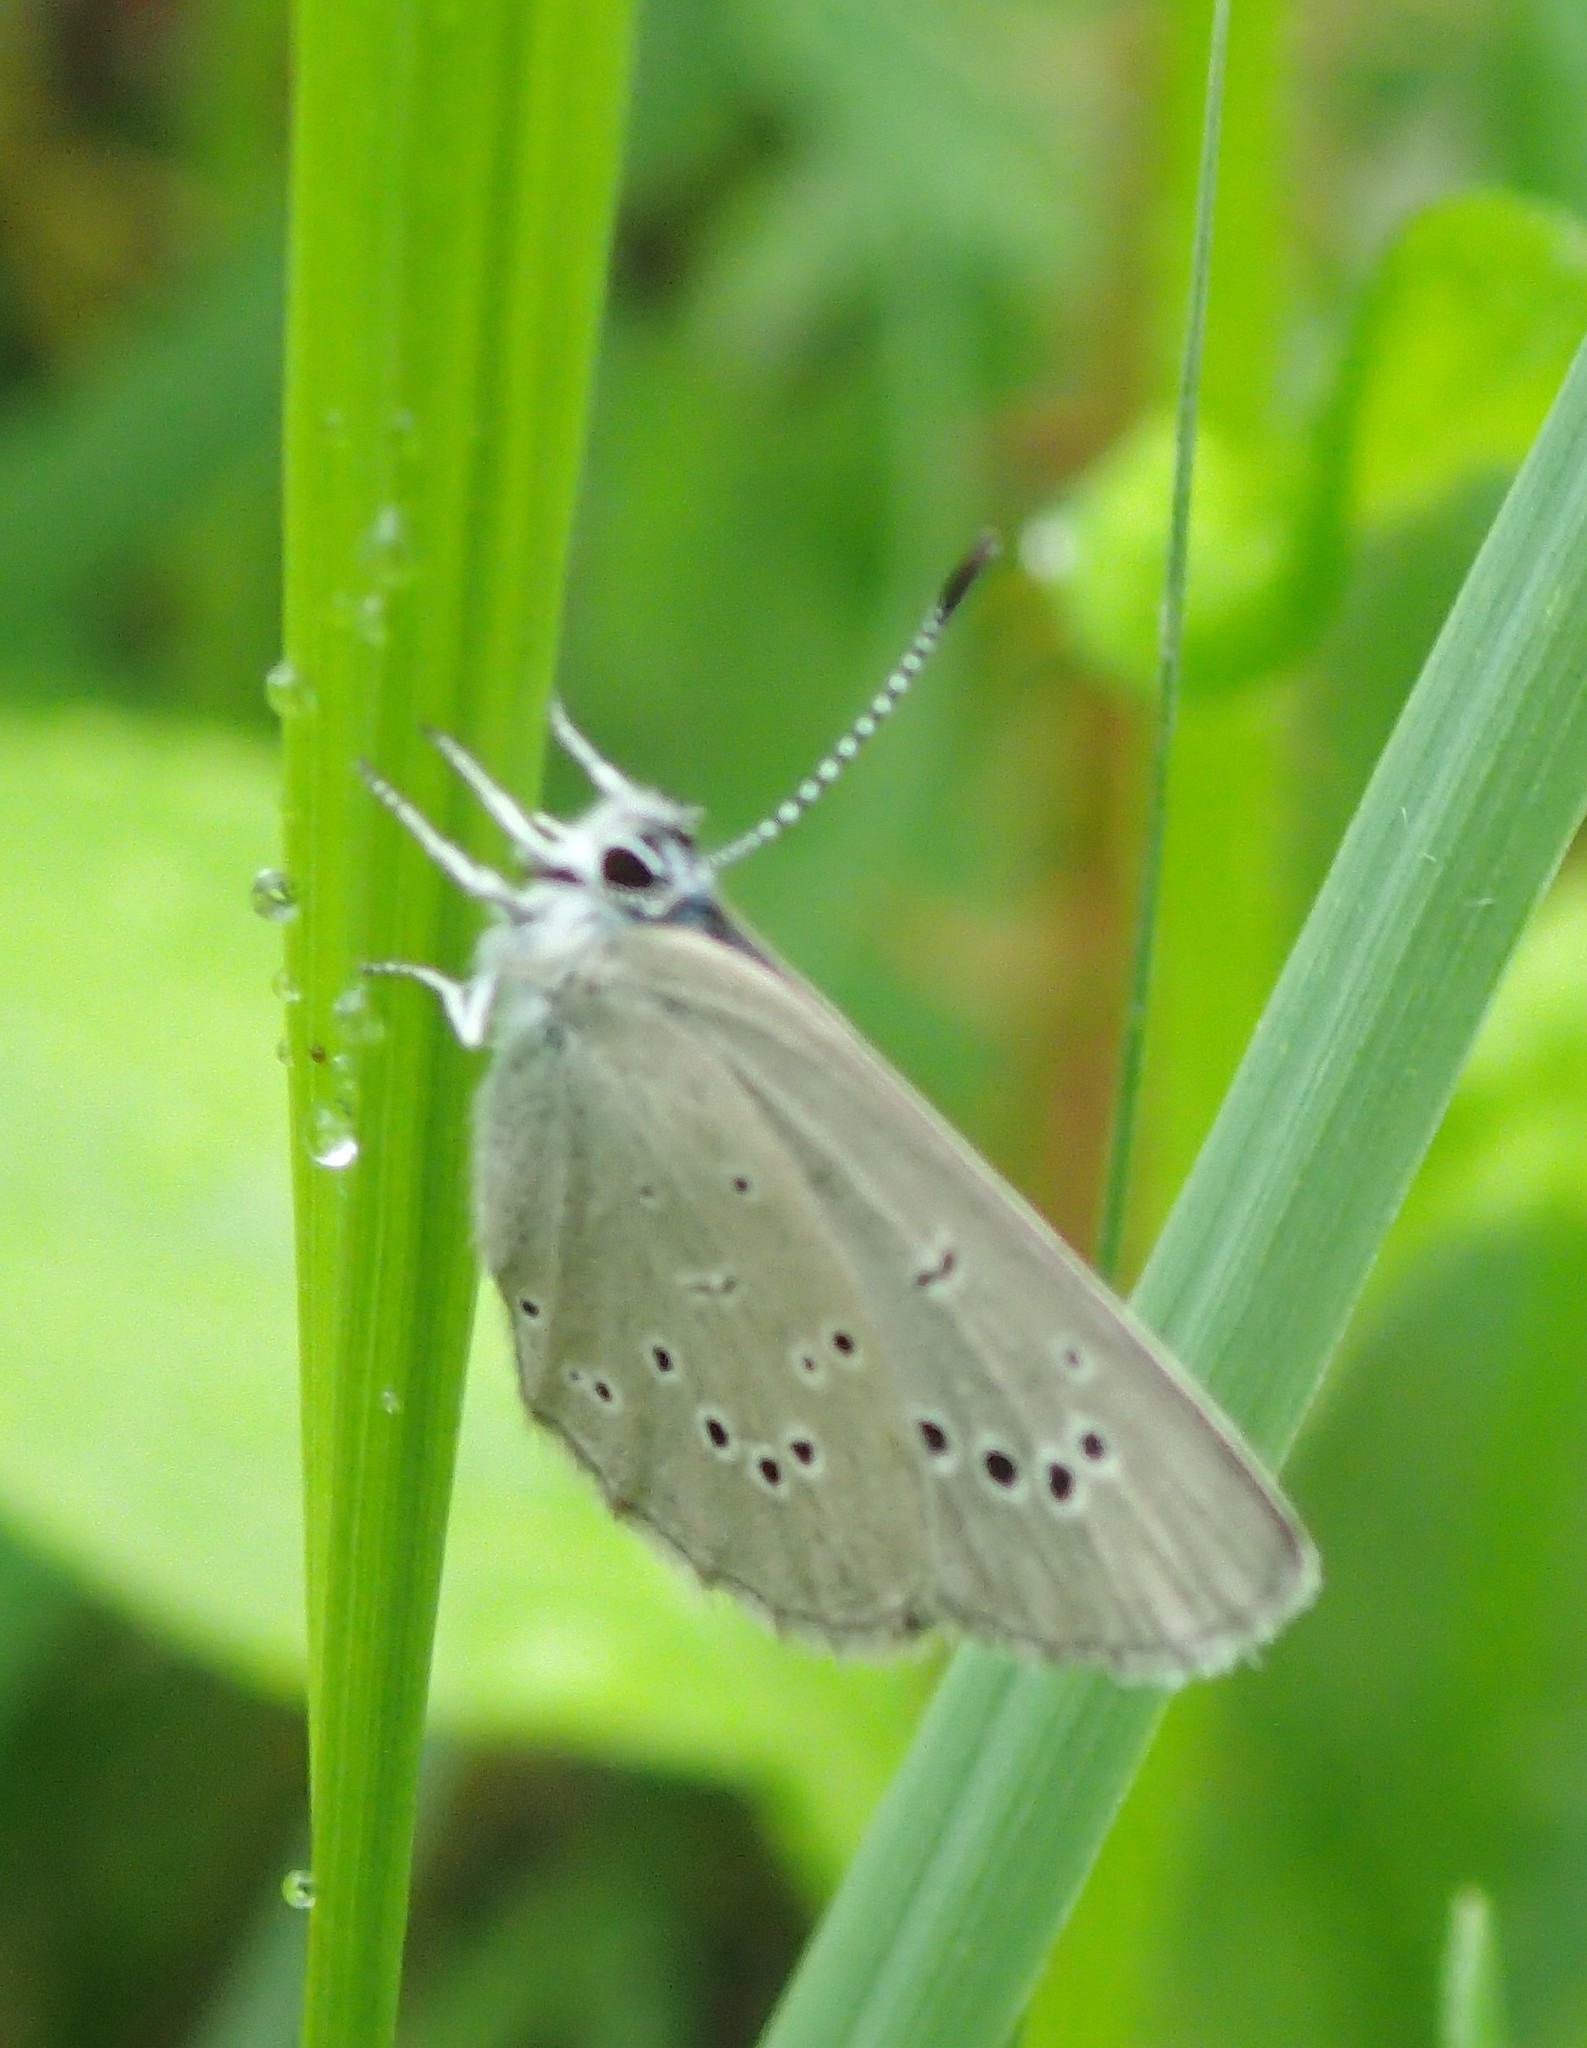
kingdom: Animalia
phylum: Arthropoda
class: Insecta
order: Lepidoptera
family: Lycaenidae
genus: Glaucopsyche
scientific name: Glaucopsyche lygdamus
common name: Silvery blue
